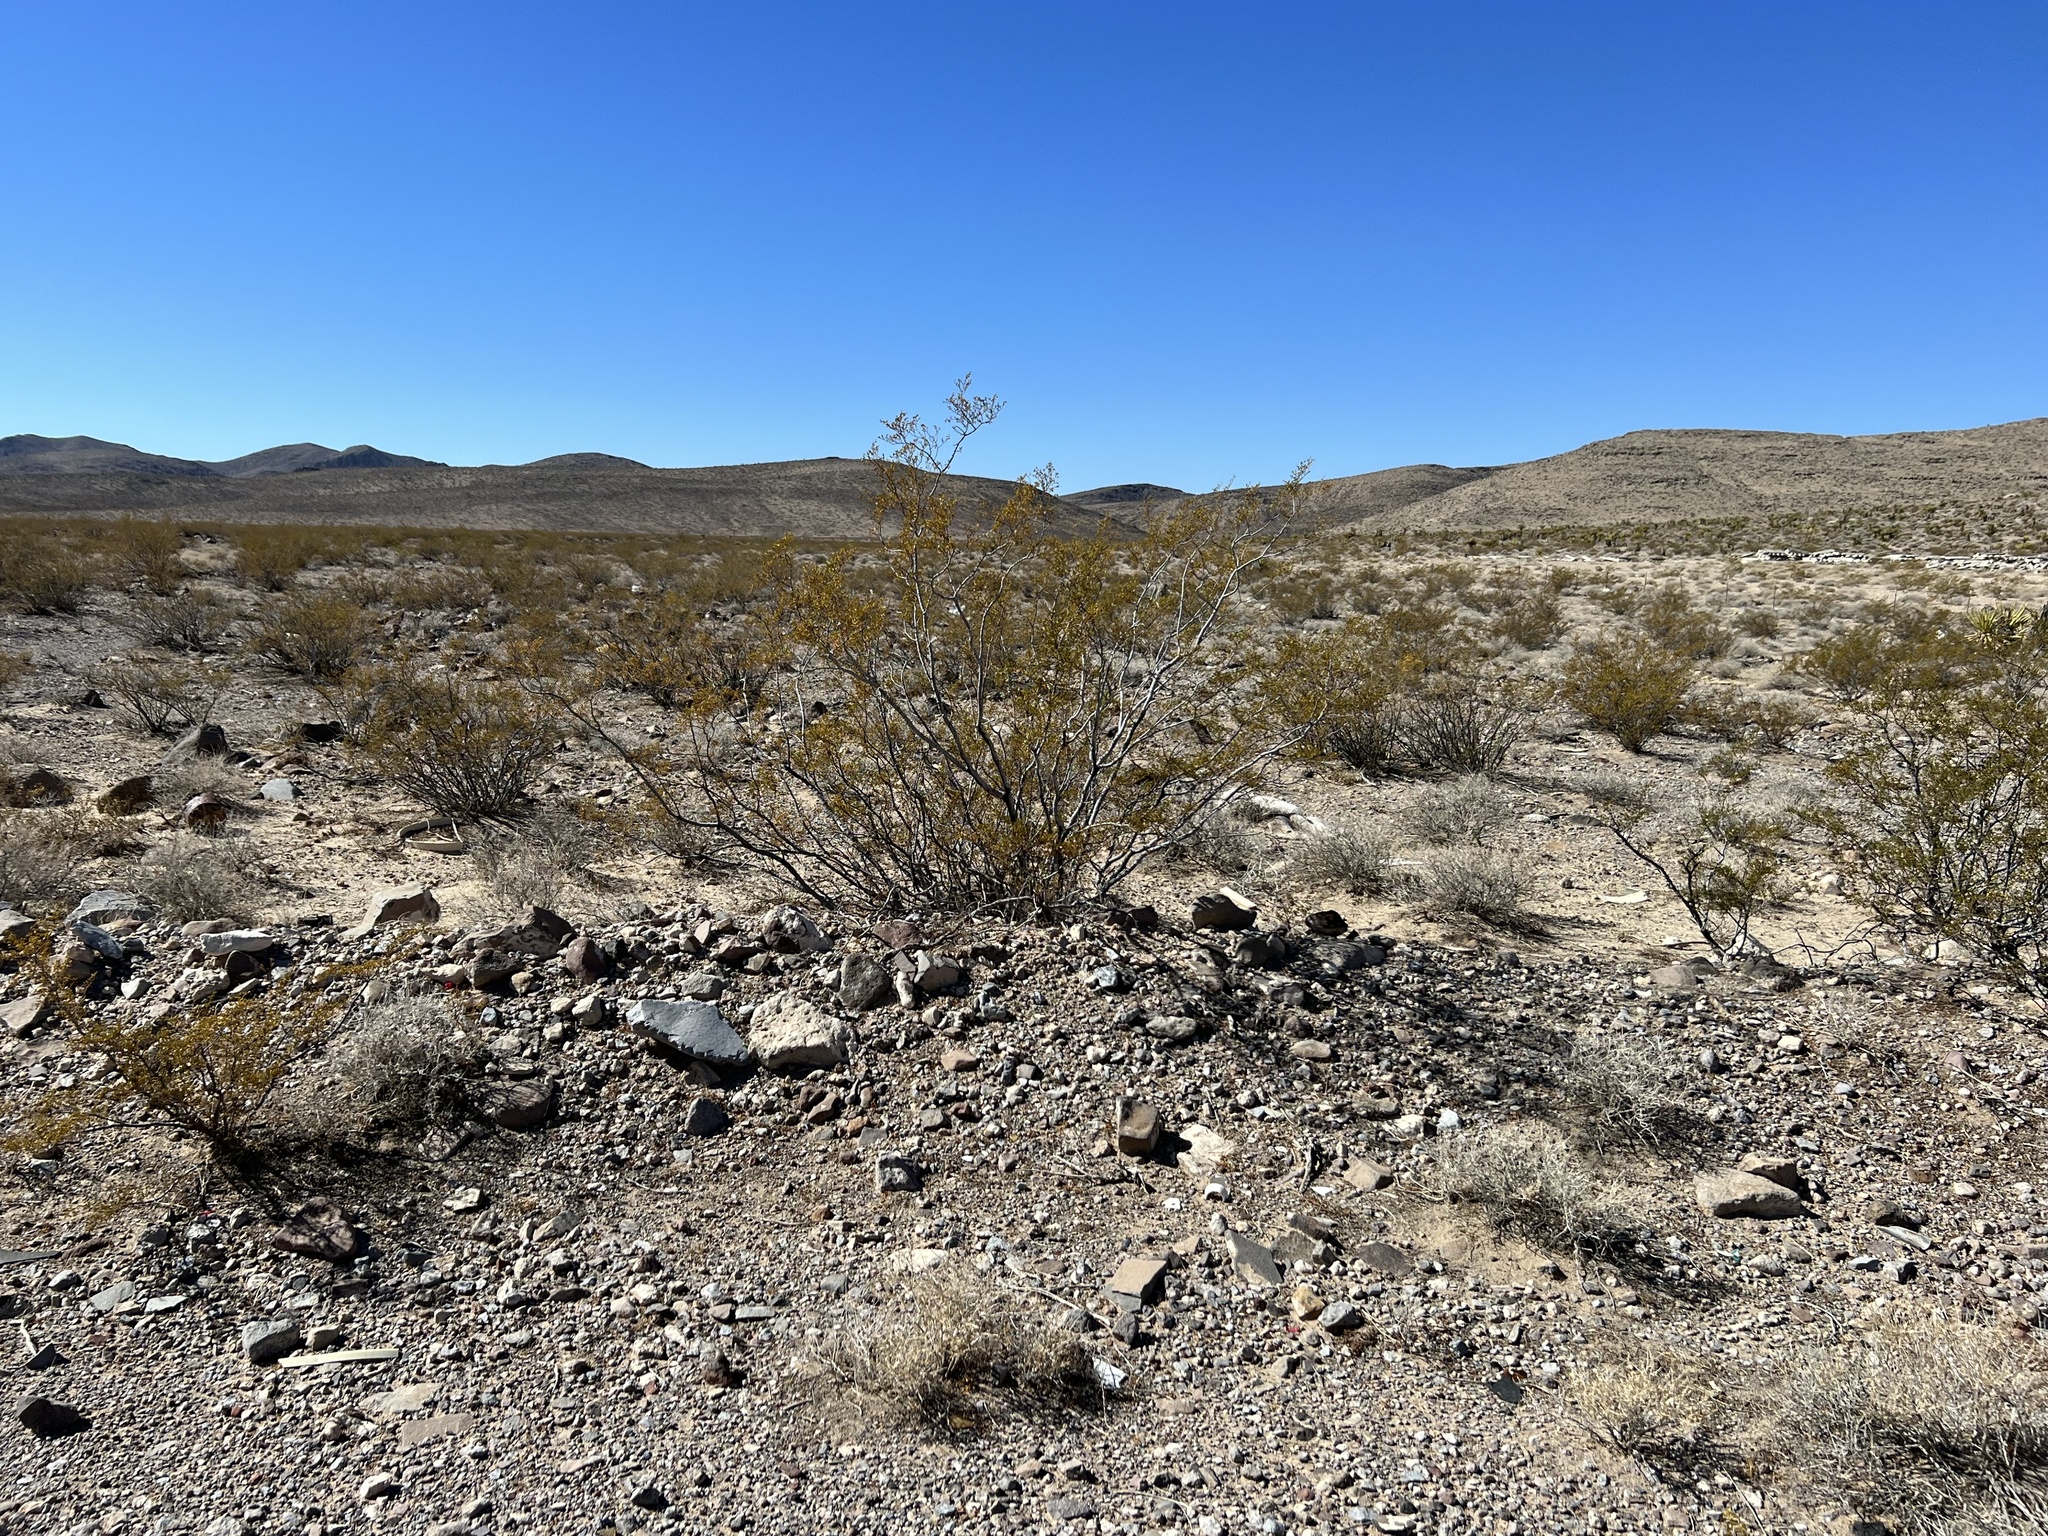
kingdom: Plantae
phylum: Tracheophyta
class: Magnoliopsida
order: Zygophyllales
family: Zygophyllaceae
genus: Larrea
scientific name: Larrea tridentata
